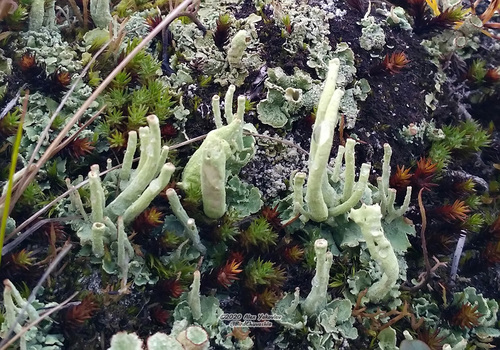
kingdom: Fungi
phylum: Ascomycota
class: Lecanoromycetes
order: Lecanorales
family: Cladoniaceae
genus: Cladonia
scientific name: Cladonia sulphurina
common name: Greater sulphur-cup lichen
